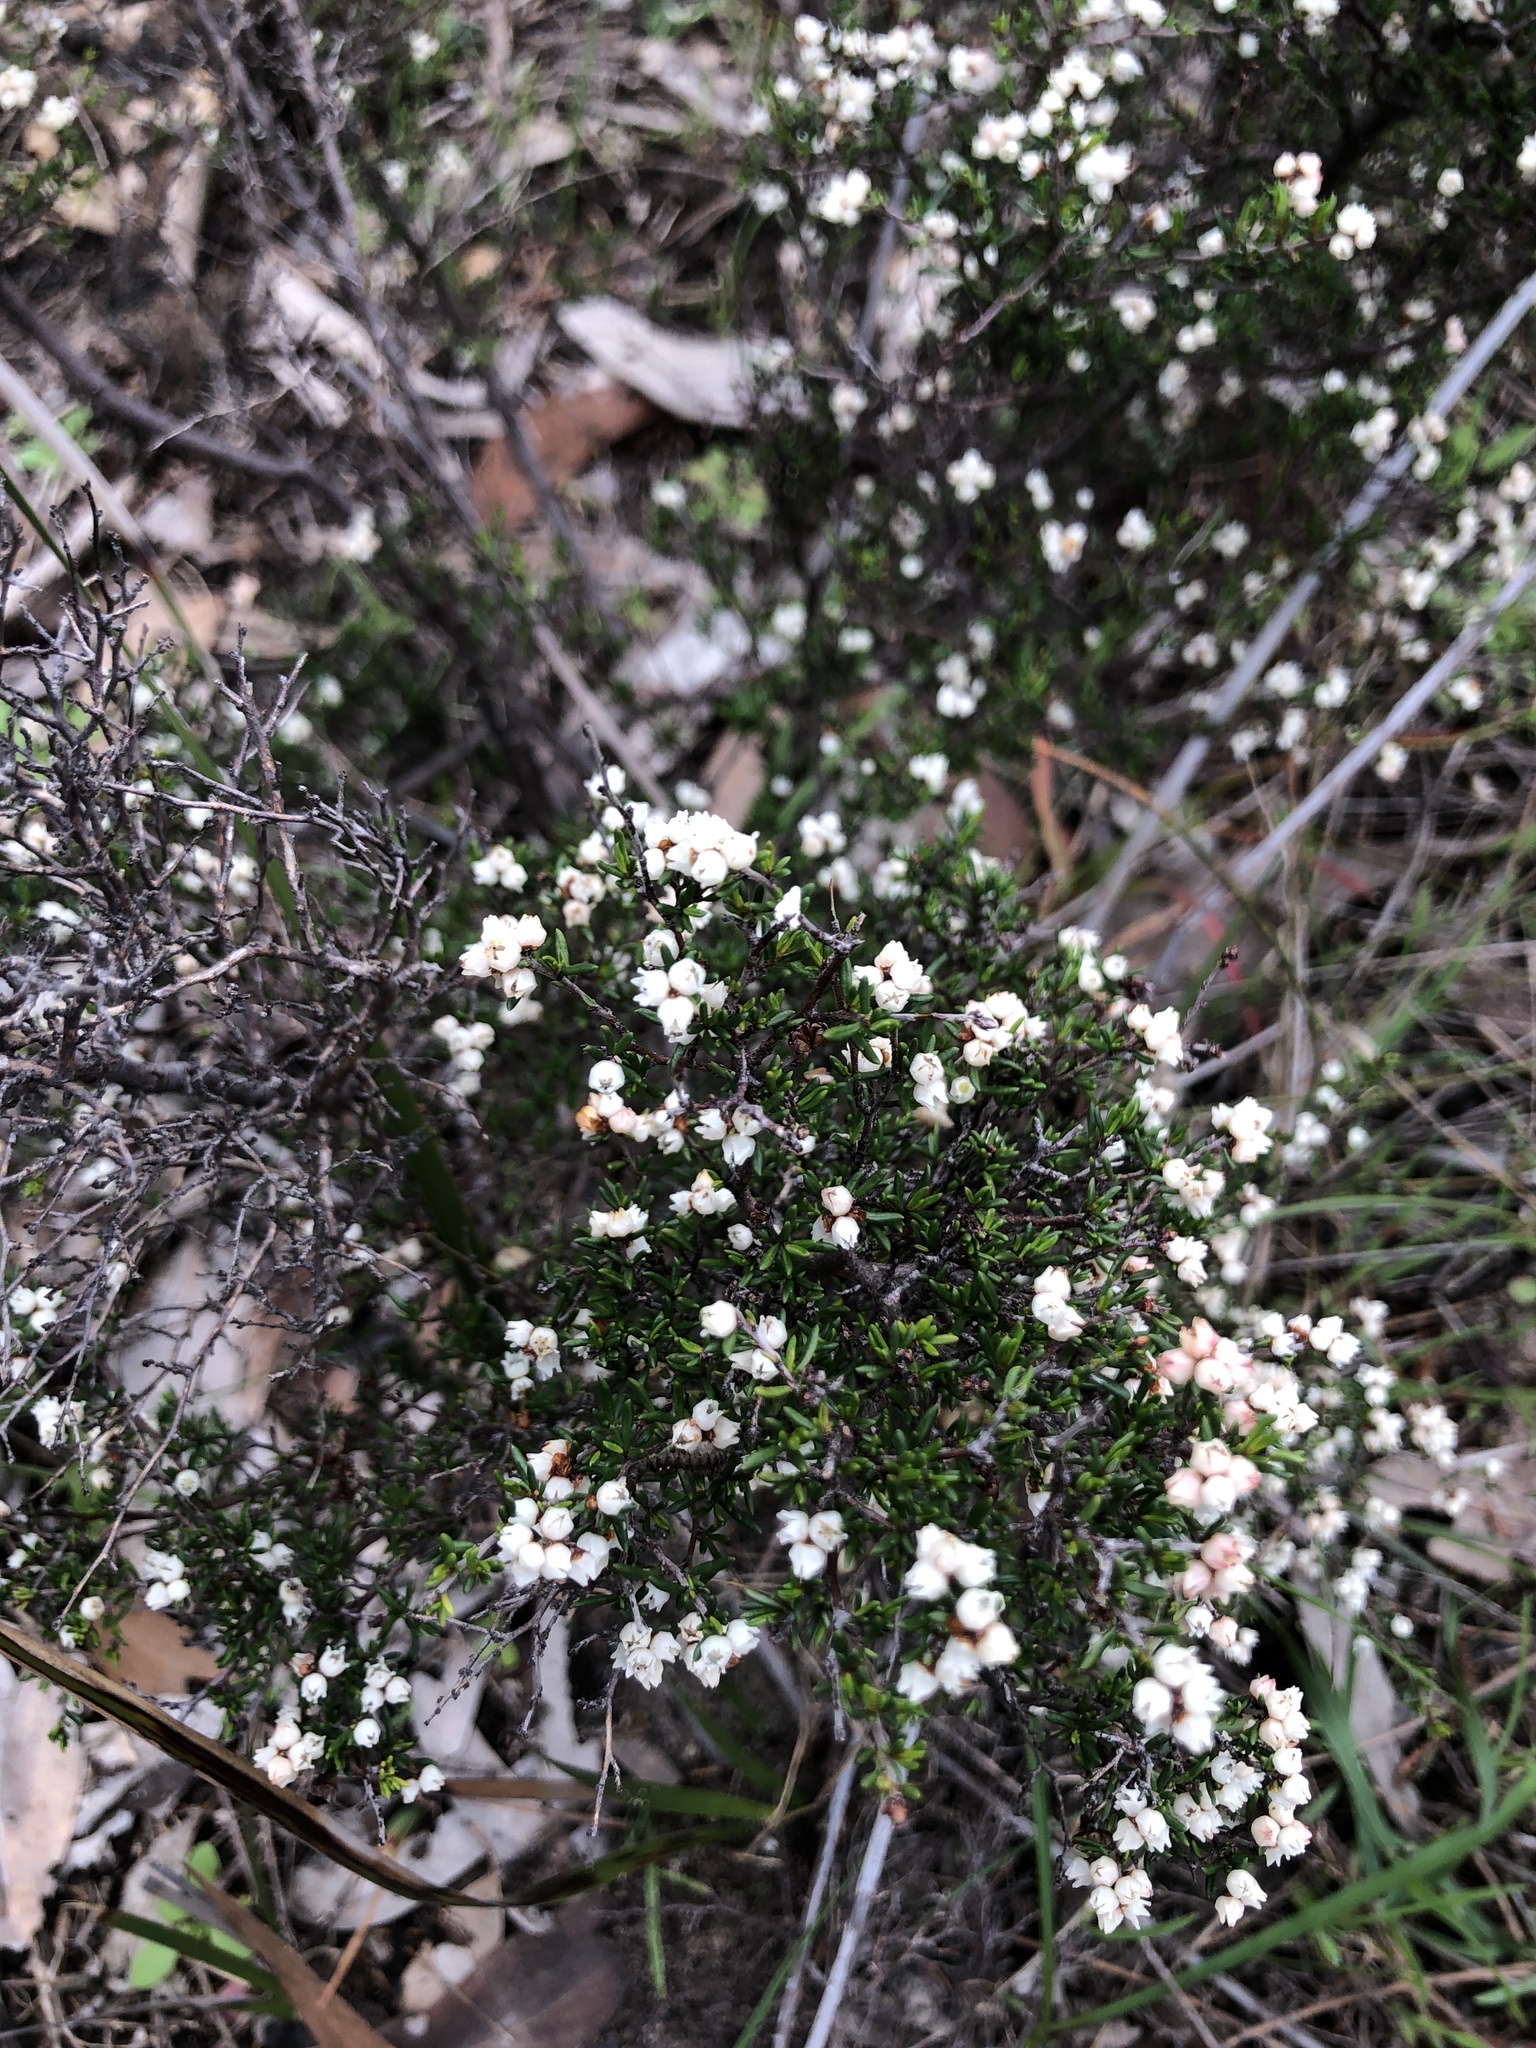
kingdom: Plantae
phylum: Tracheophyta
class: Magnoliopsida
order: Rosales
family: Rhamnaceae
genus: Cryptandra
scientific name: Cryptandra tomentosa
